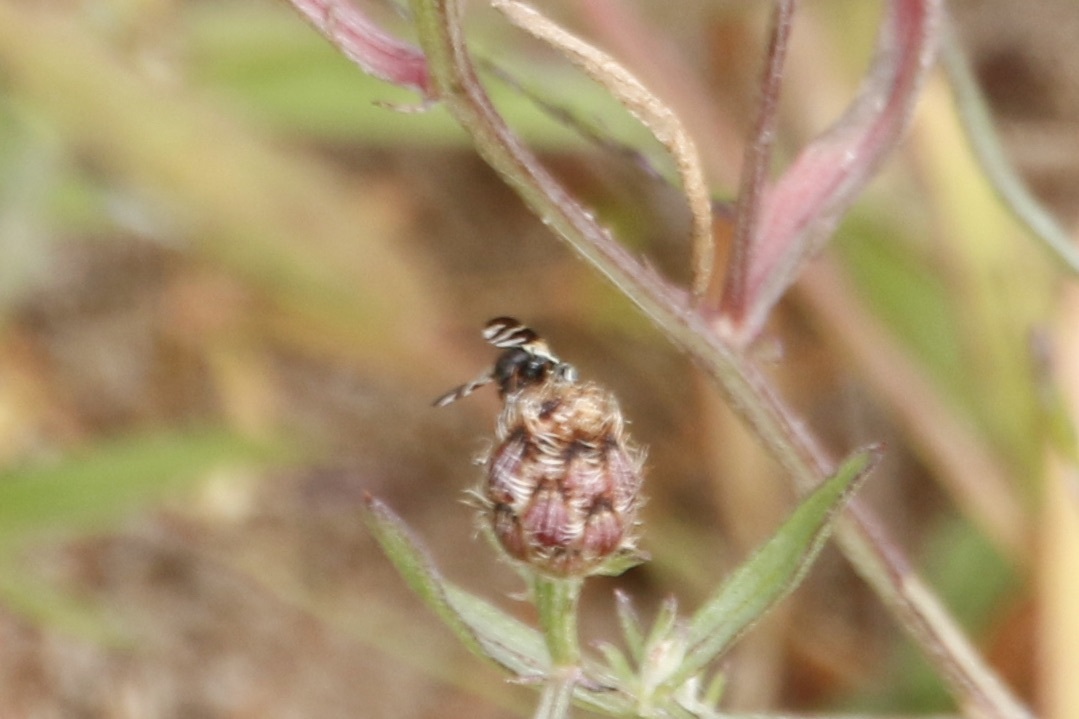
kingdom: Animalia
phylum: Arthropoda
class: Insecta
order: Diptera
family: Tephritidae
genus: Urophora
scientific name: Urophora quadrifasciata
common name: Knapweed seedhead fly
